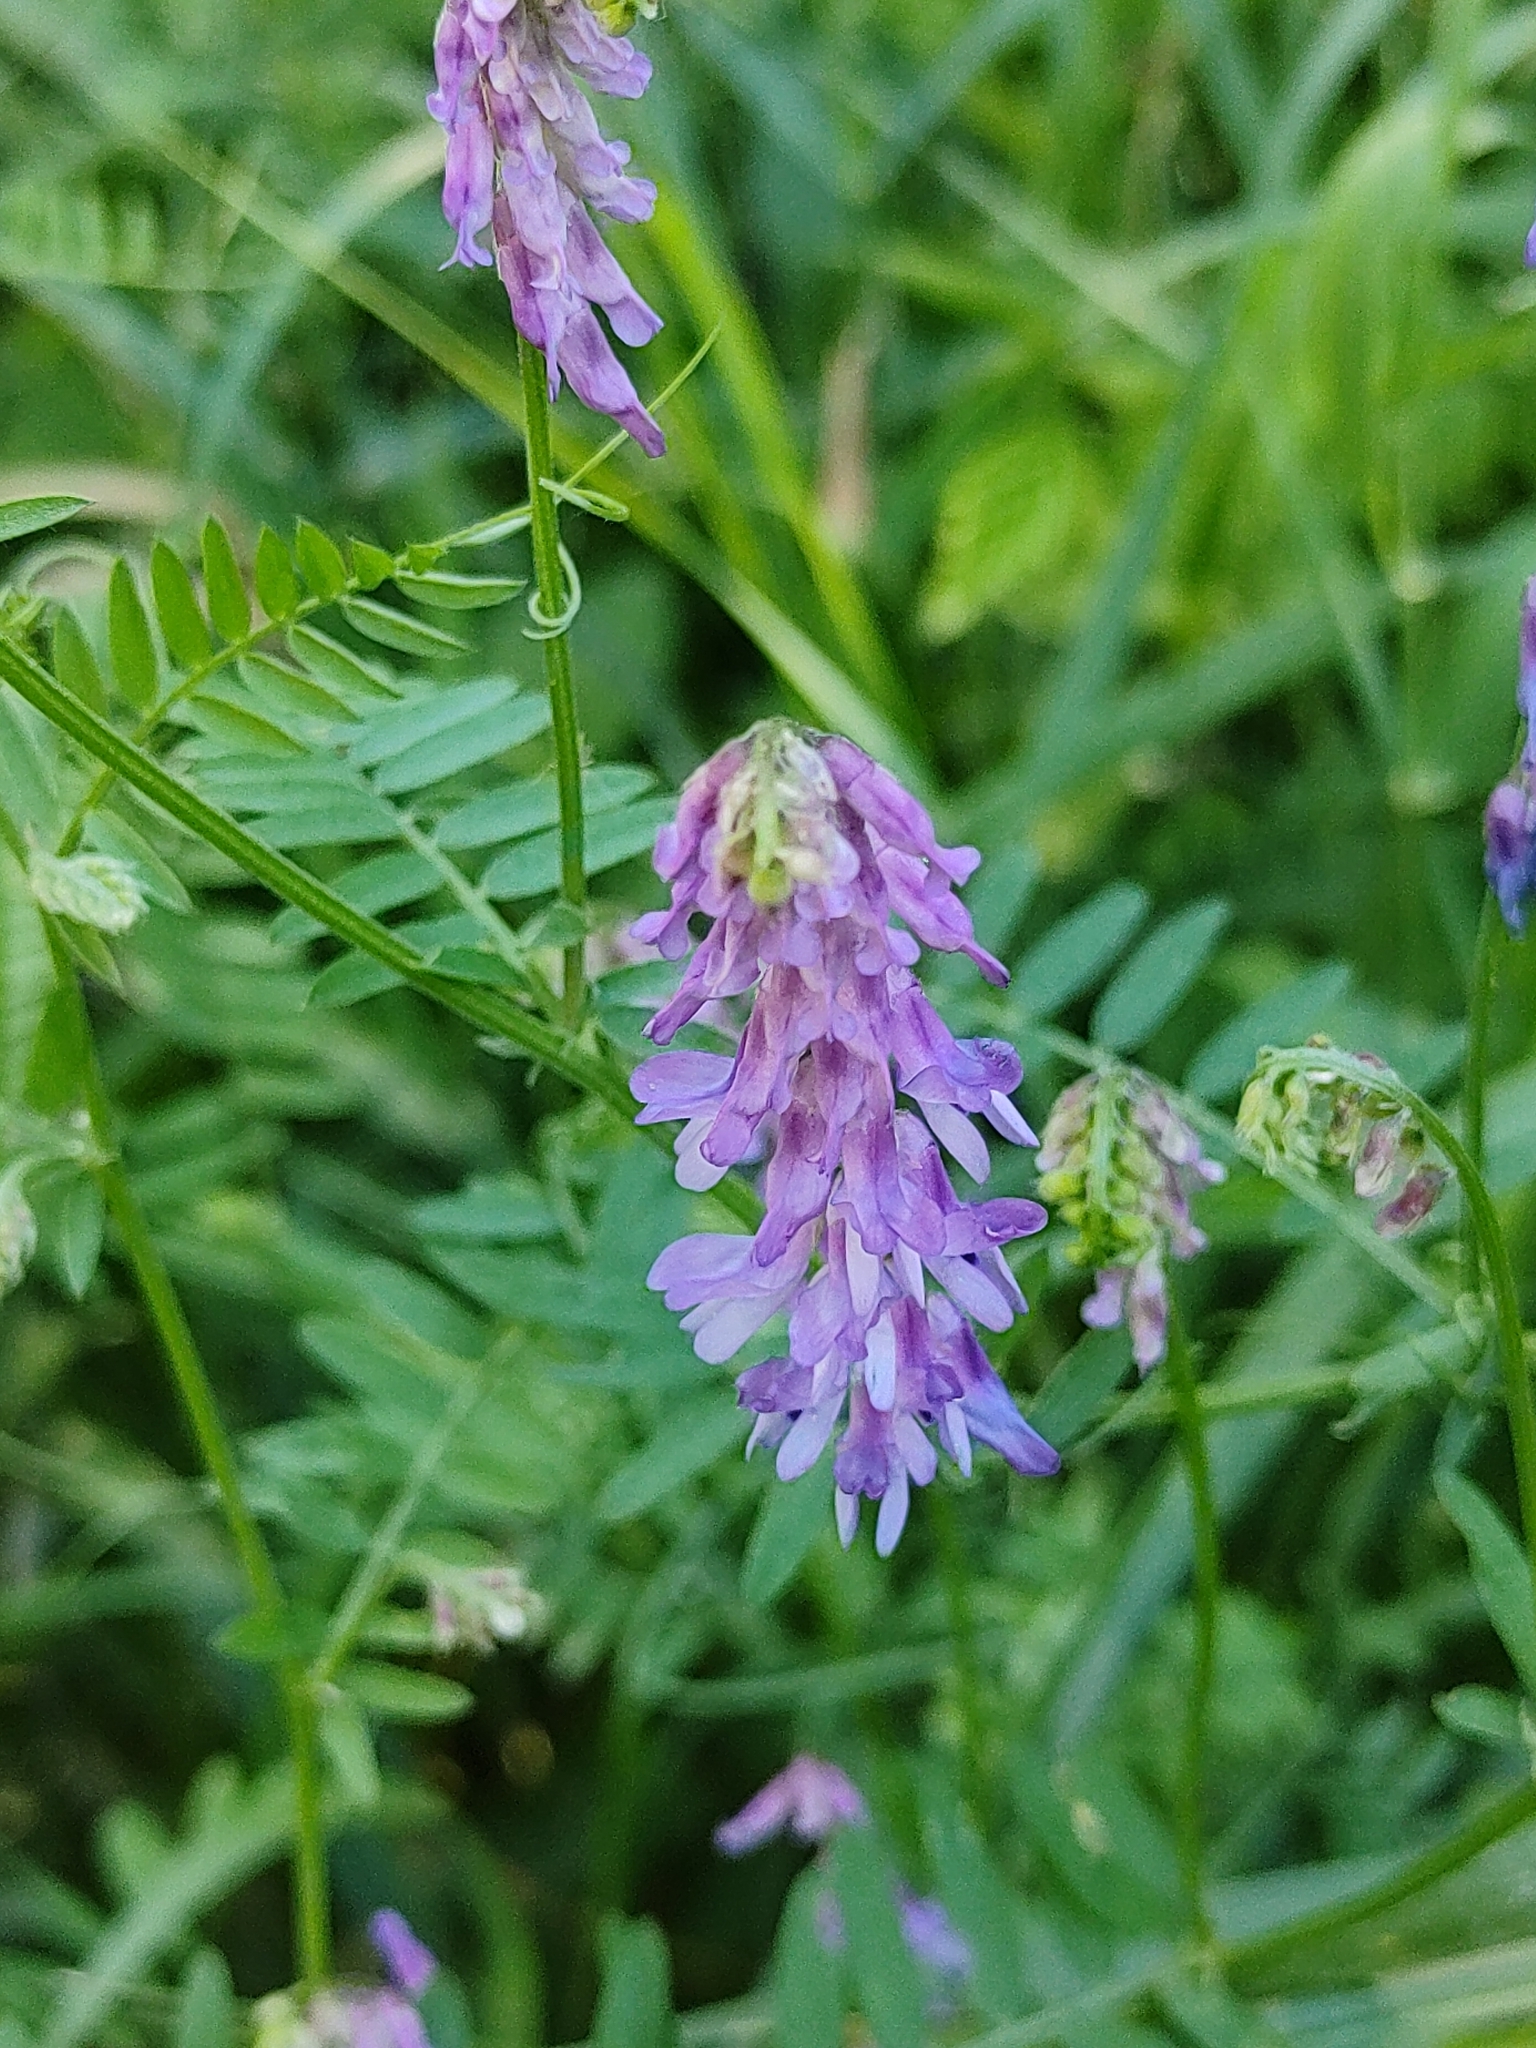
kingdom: Plantae
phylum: Tracheophyta
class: Magnoliopsida
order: Fabales
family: Fabaceae
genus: Vicia
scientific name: Vicia cracca
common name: Bird vetch
